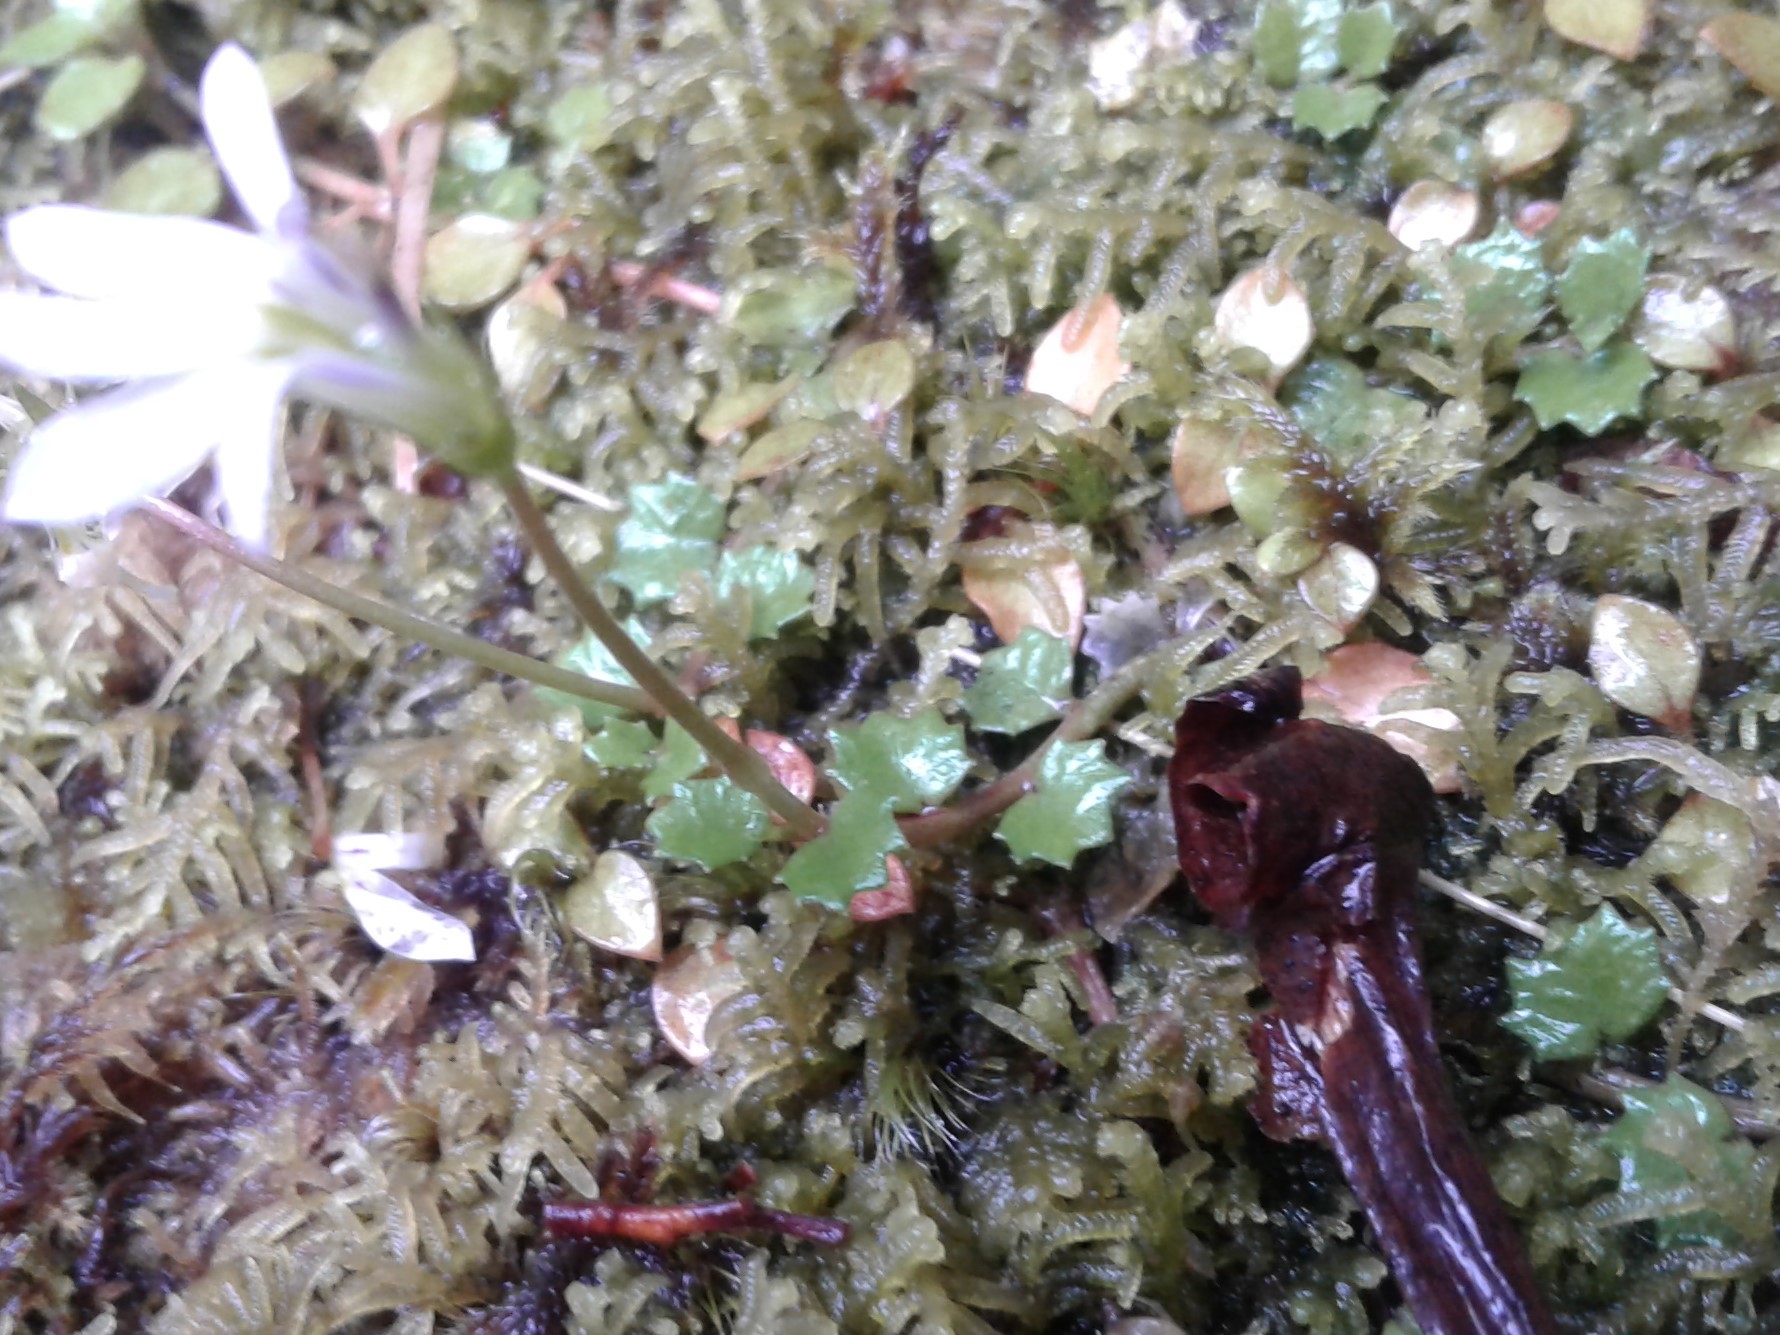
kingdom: Plantae
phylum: Tracheophyta
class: Magnoliopsida
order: Asterales
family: Campanulaceae
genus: Lobelia
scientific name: Lobelia angulata
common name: Lawn lobelia
